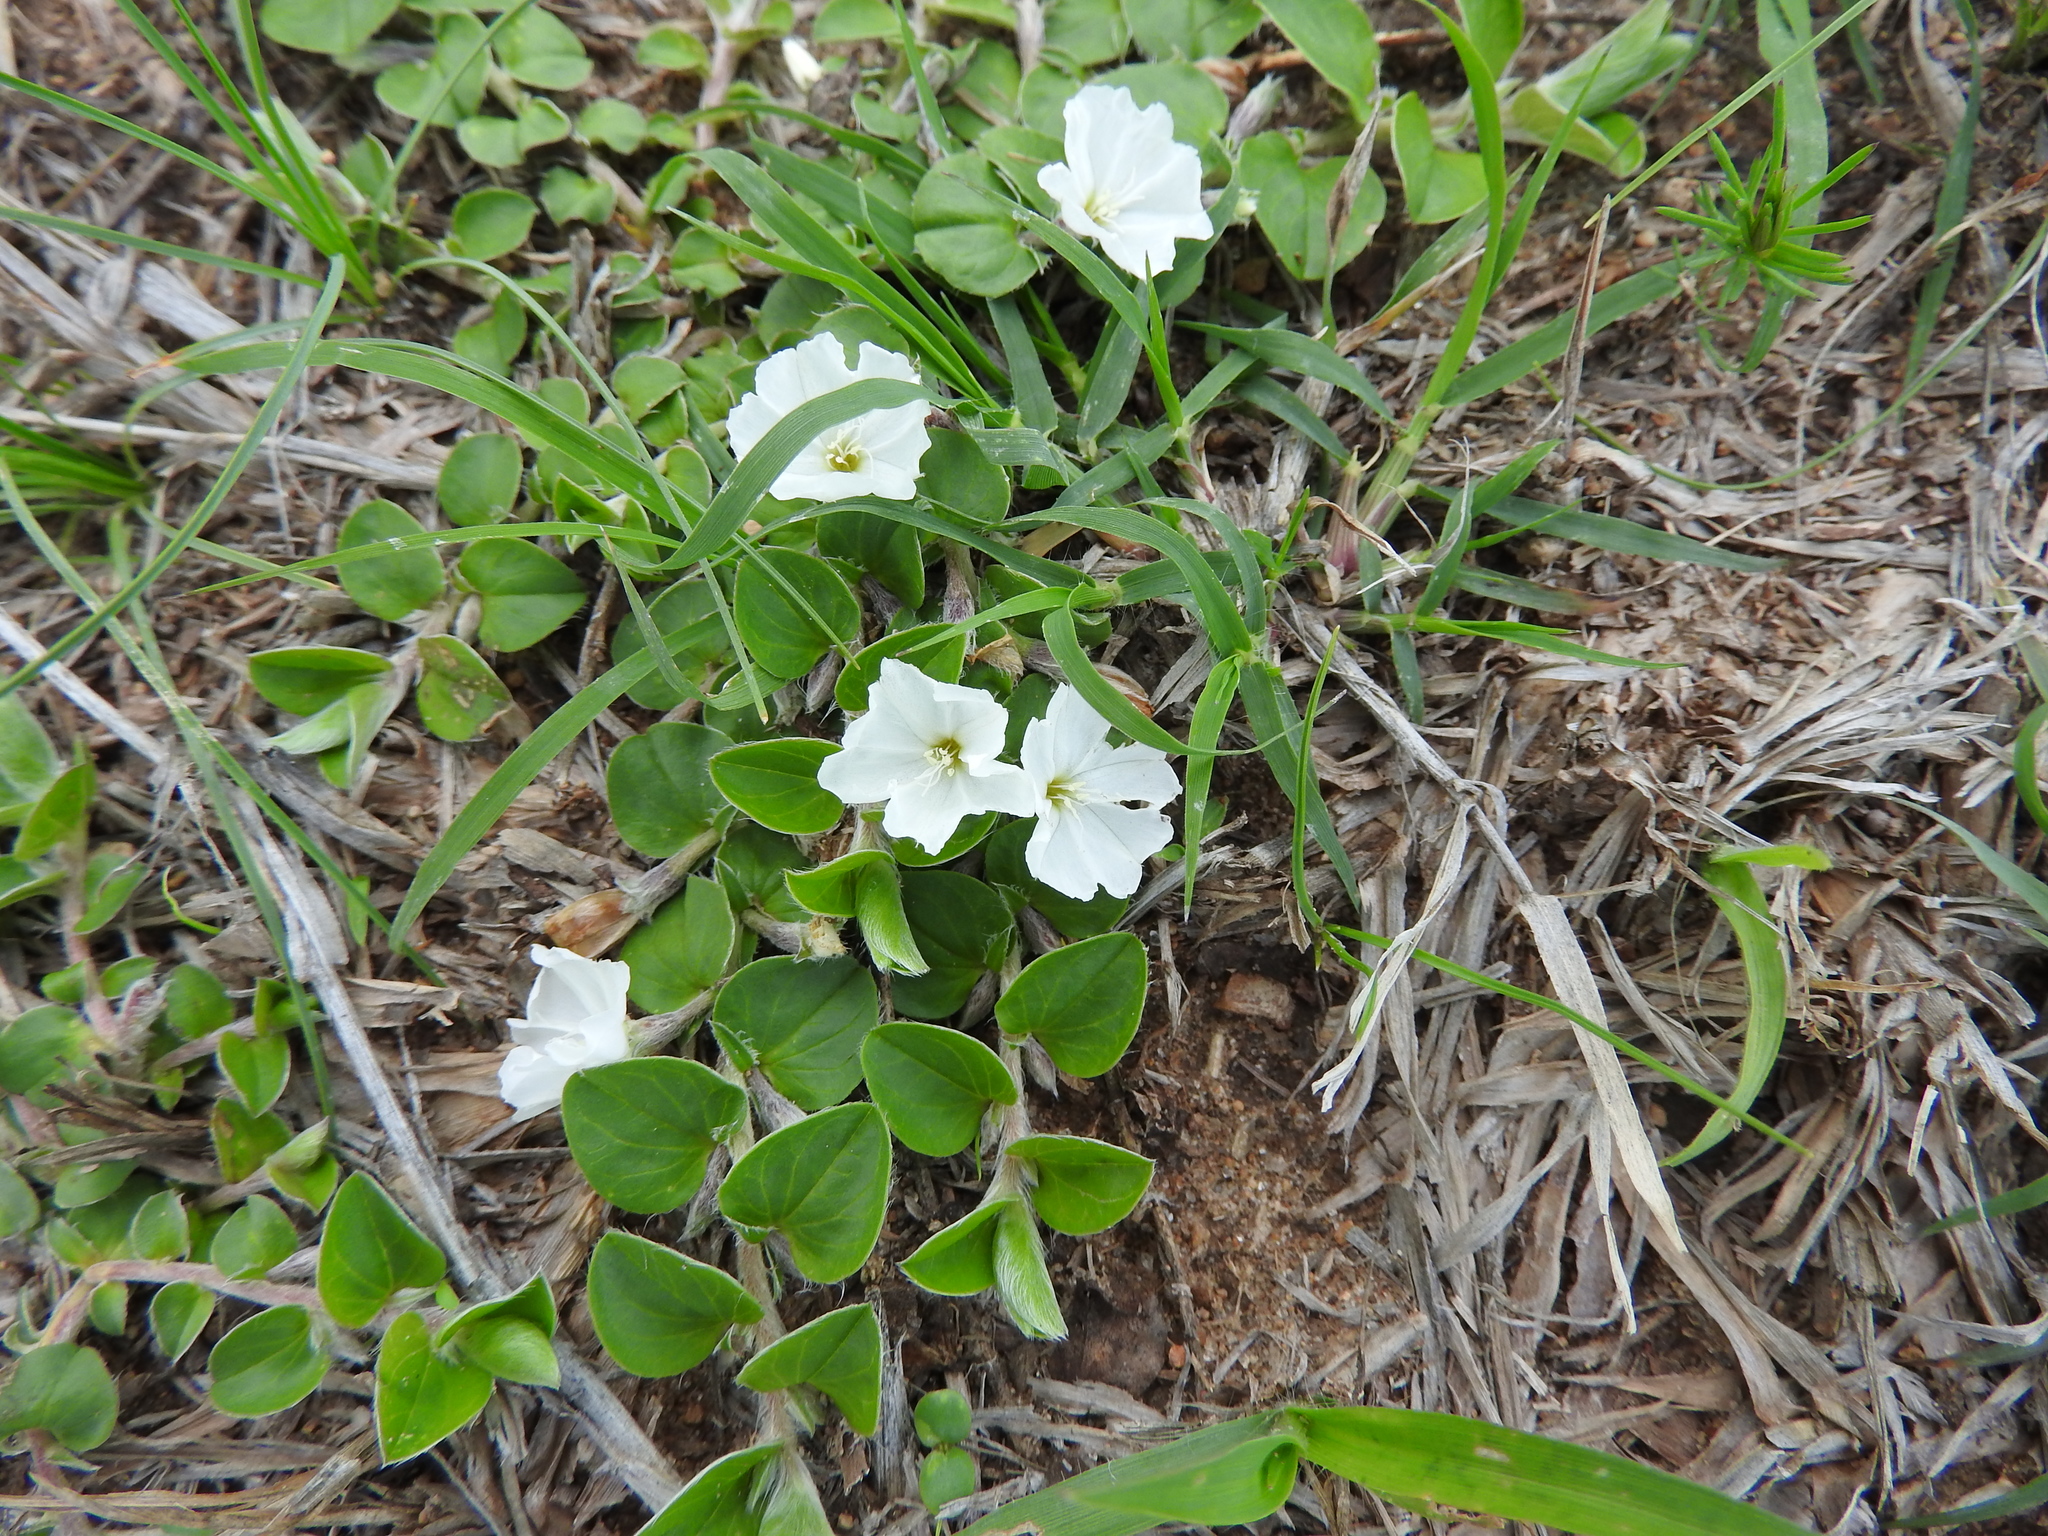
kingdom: Plantae
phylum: Tracheophyta
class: Magnoliopsida
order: Solanales
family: Convolvulaceae
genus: Evolvulus
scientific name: Evolvulus prostratus
